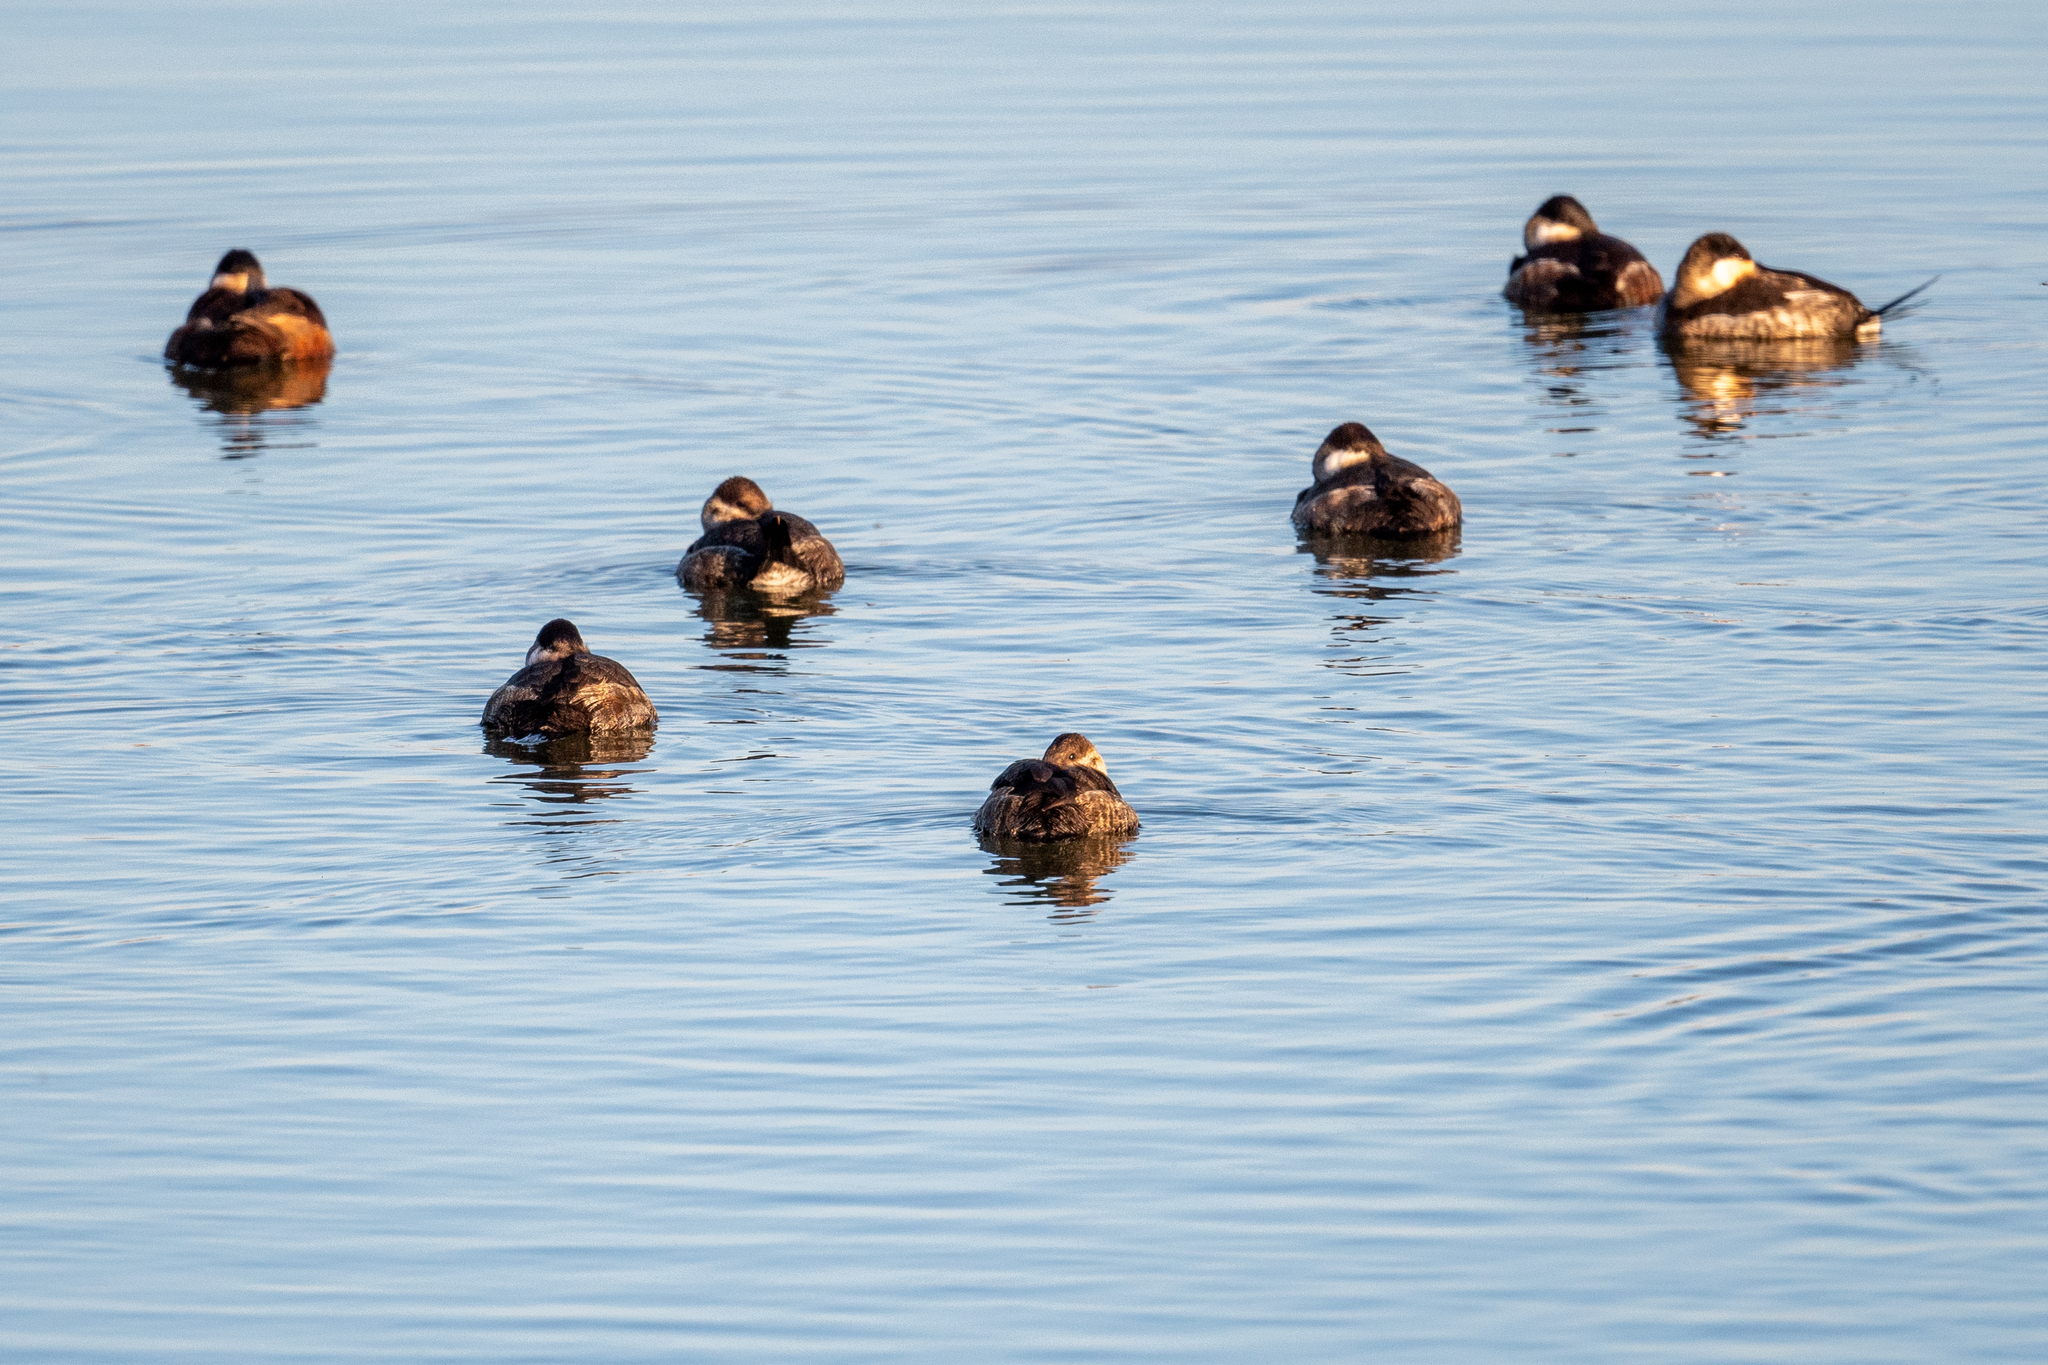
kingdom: Animalia
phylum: Chordata
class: Aves
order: Anseriformes
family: Anatidae
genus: Oxyura
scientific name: Oxyura jamaicensis
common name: Ruddy duck
